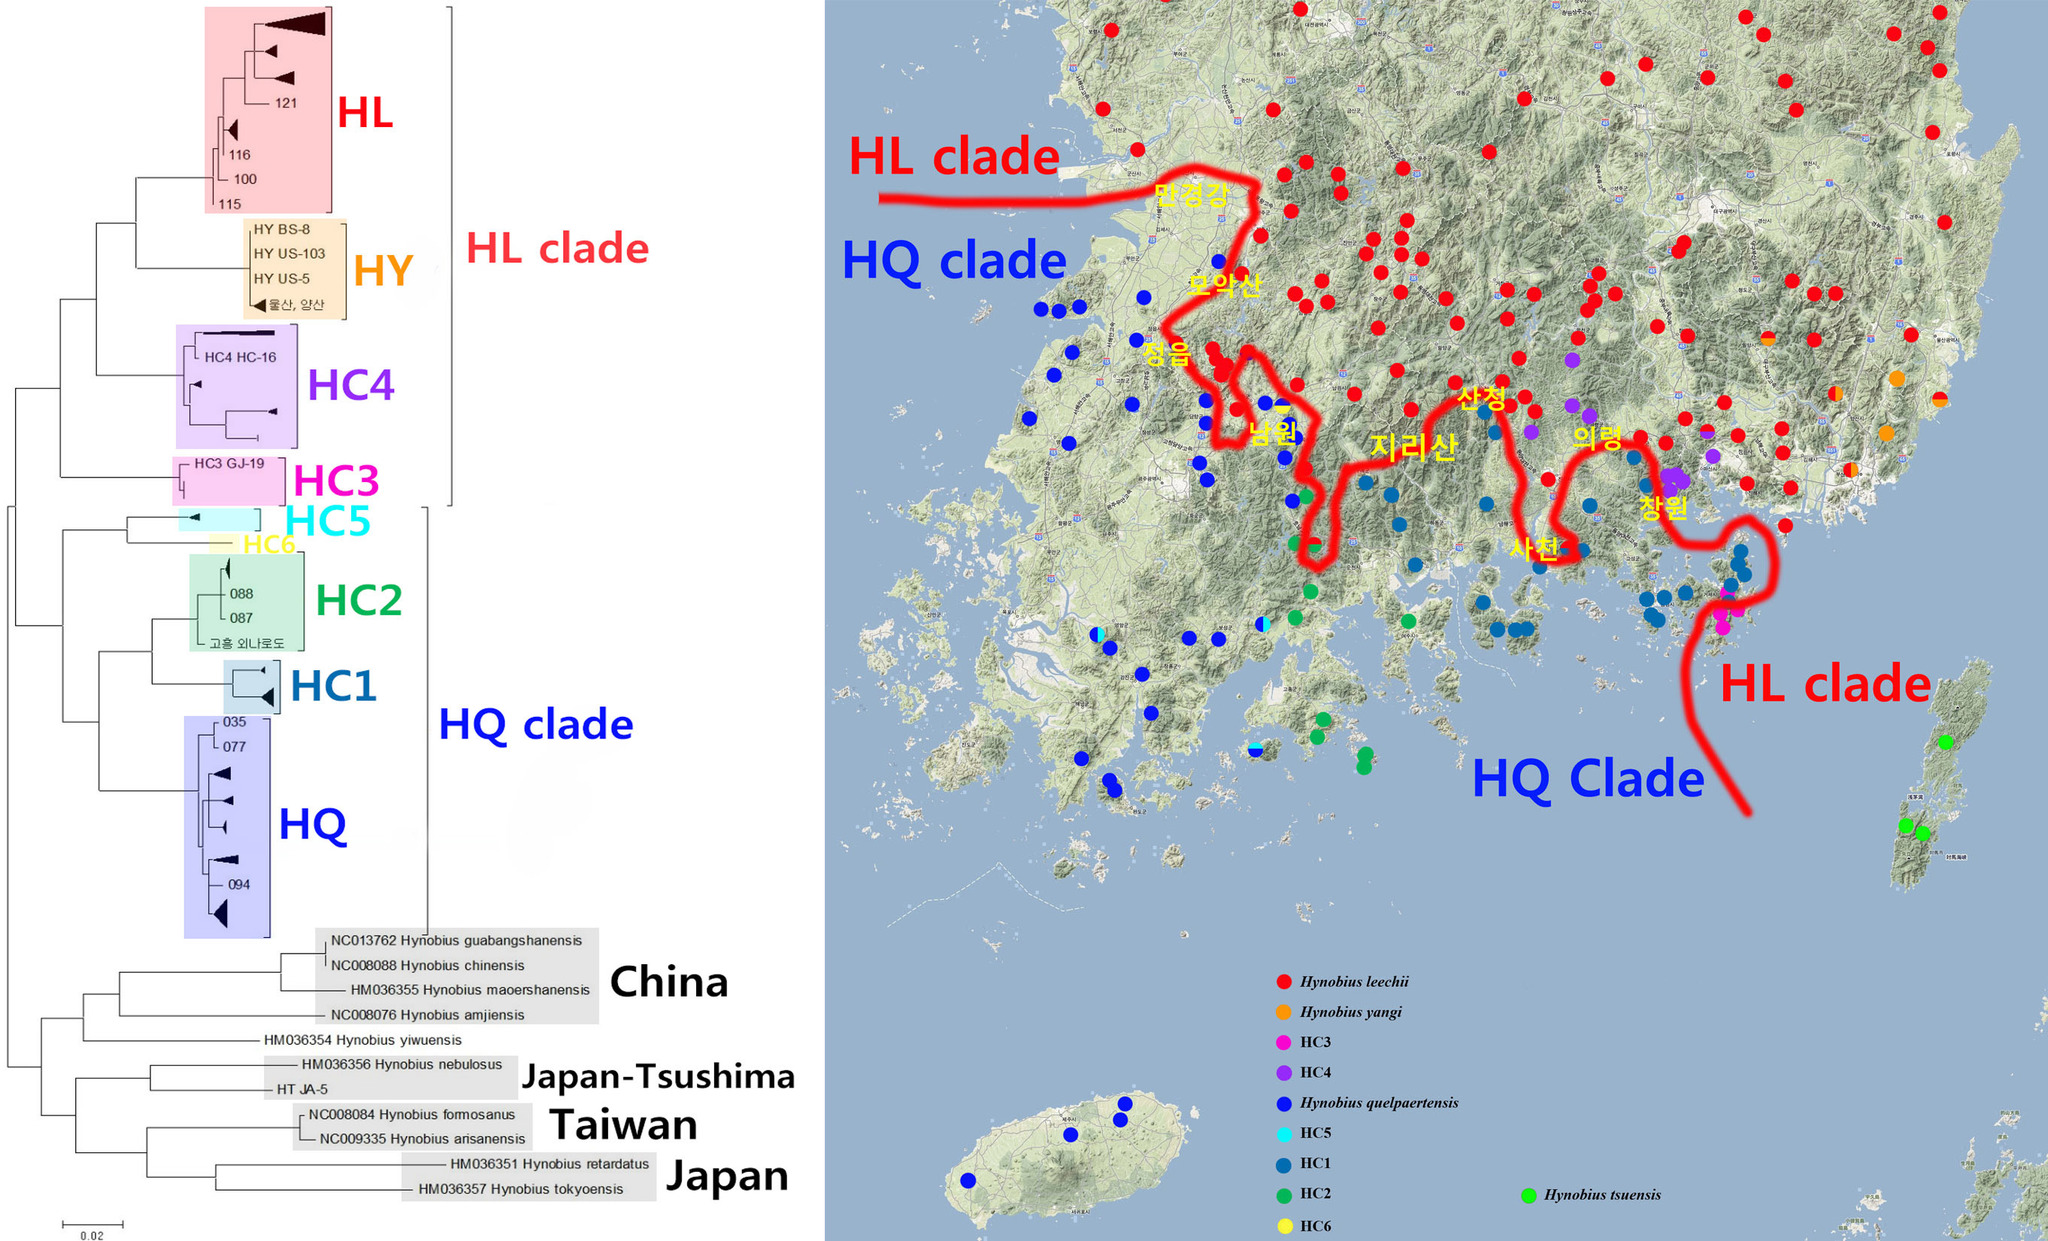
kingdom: Animalia
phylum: Chordata
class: Amphibia
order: Caudata
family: Hynobiidae
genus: Hynobius
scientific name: Hynobius notialis
